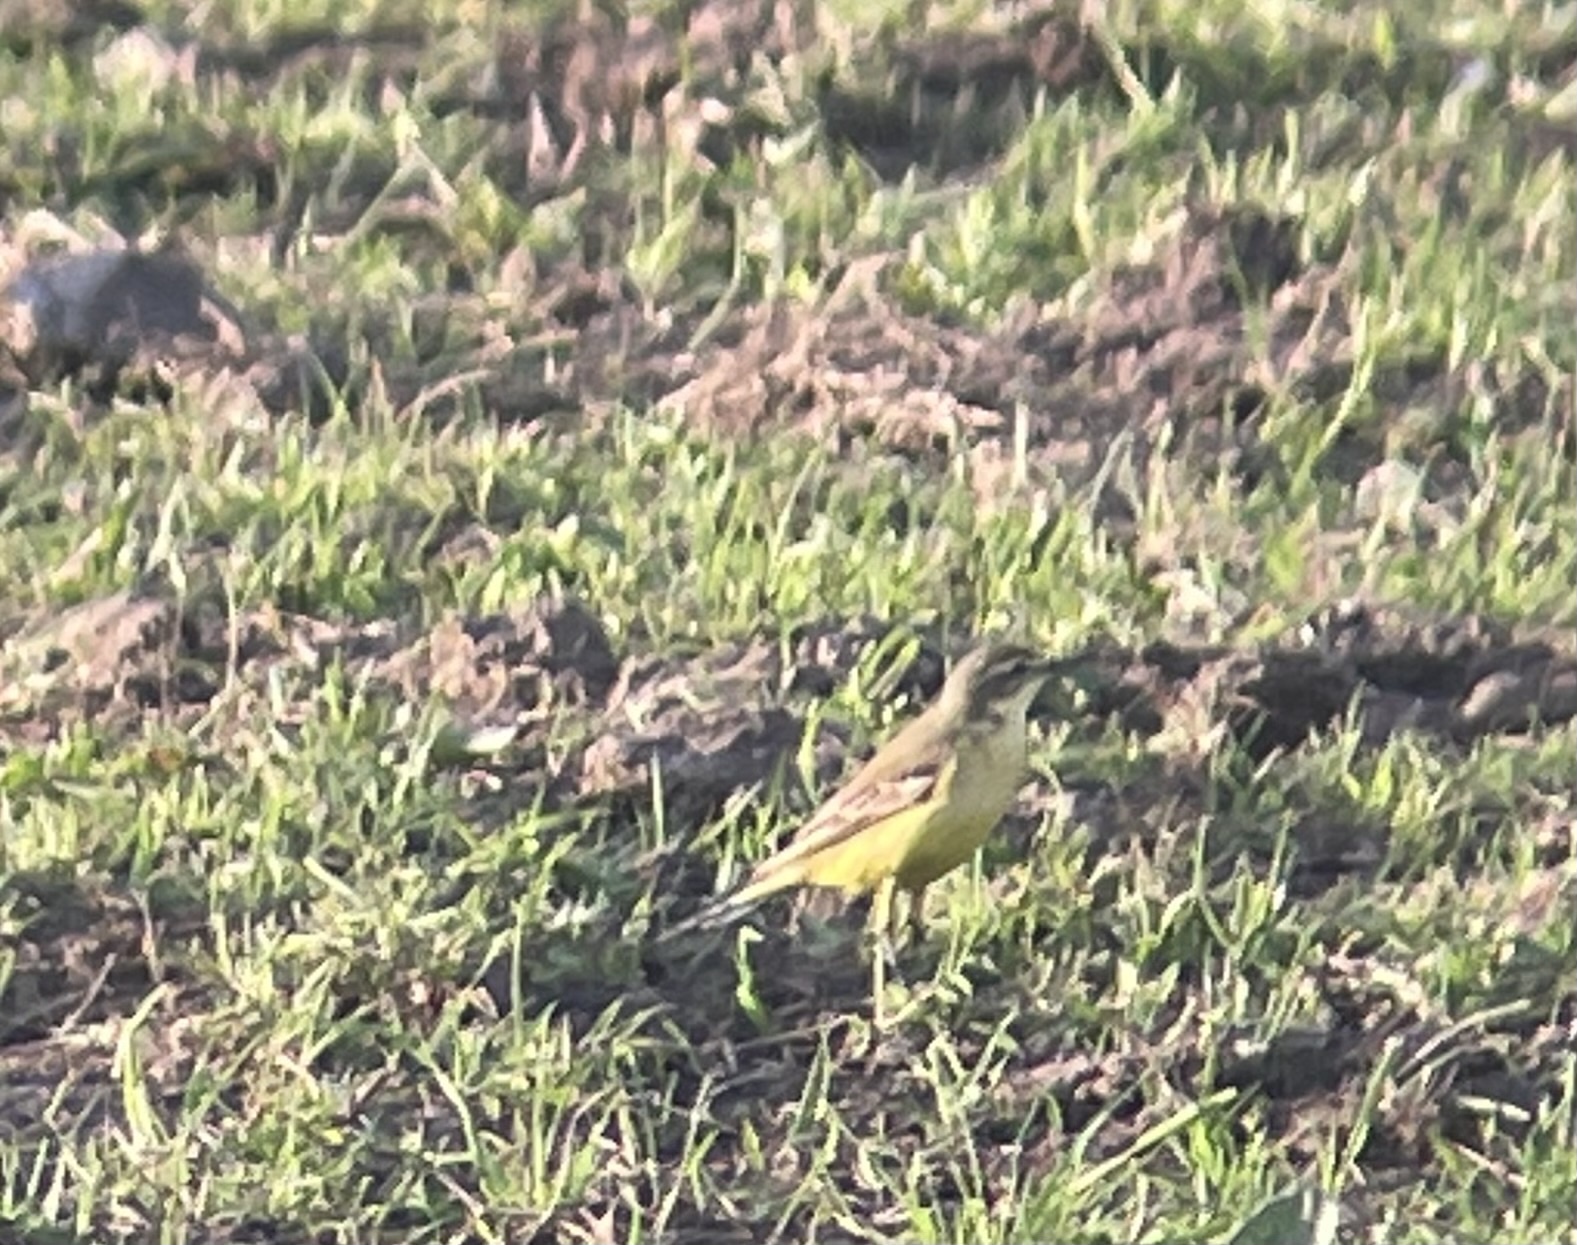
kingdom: Animalia
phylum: Chordata
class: Aves
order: Passeriformes
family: Motacillidae
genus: Motacilla
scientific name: Motacilla flava
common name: Western yellow wagtail
